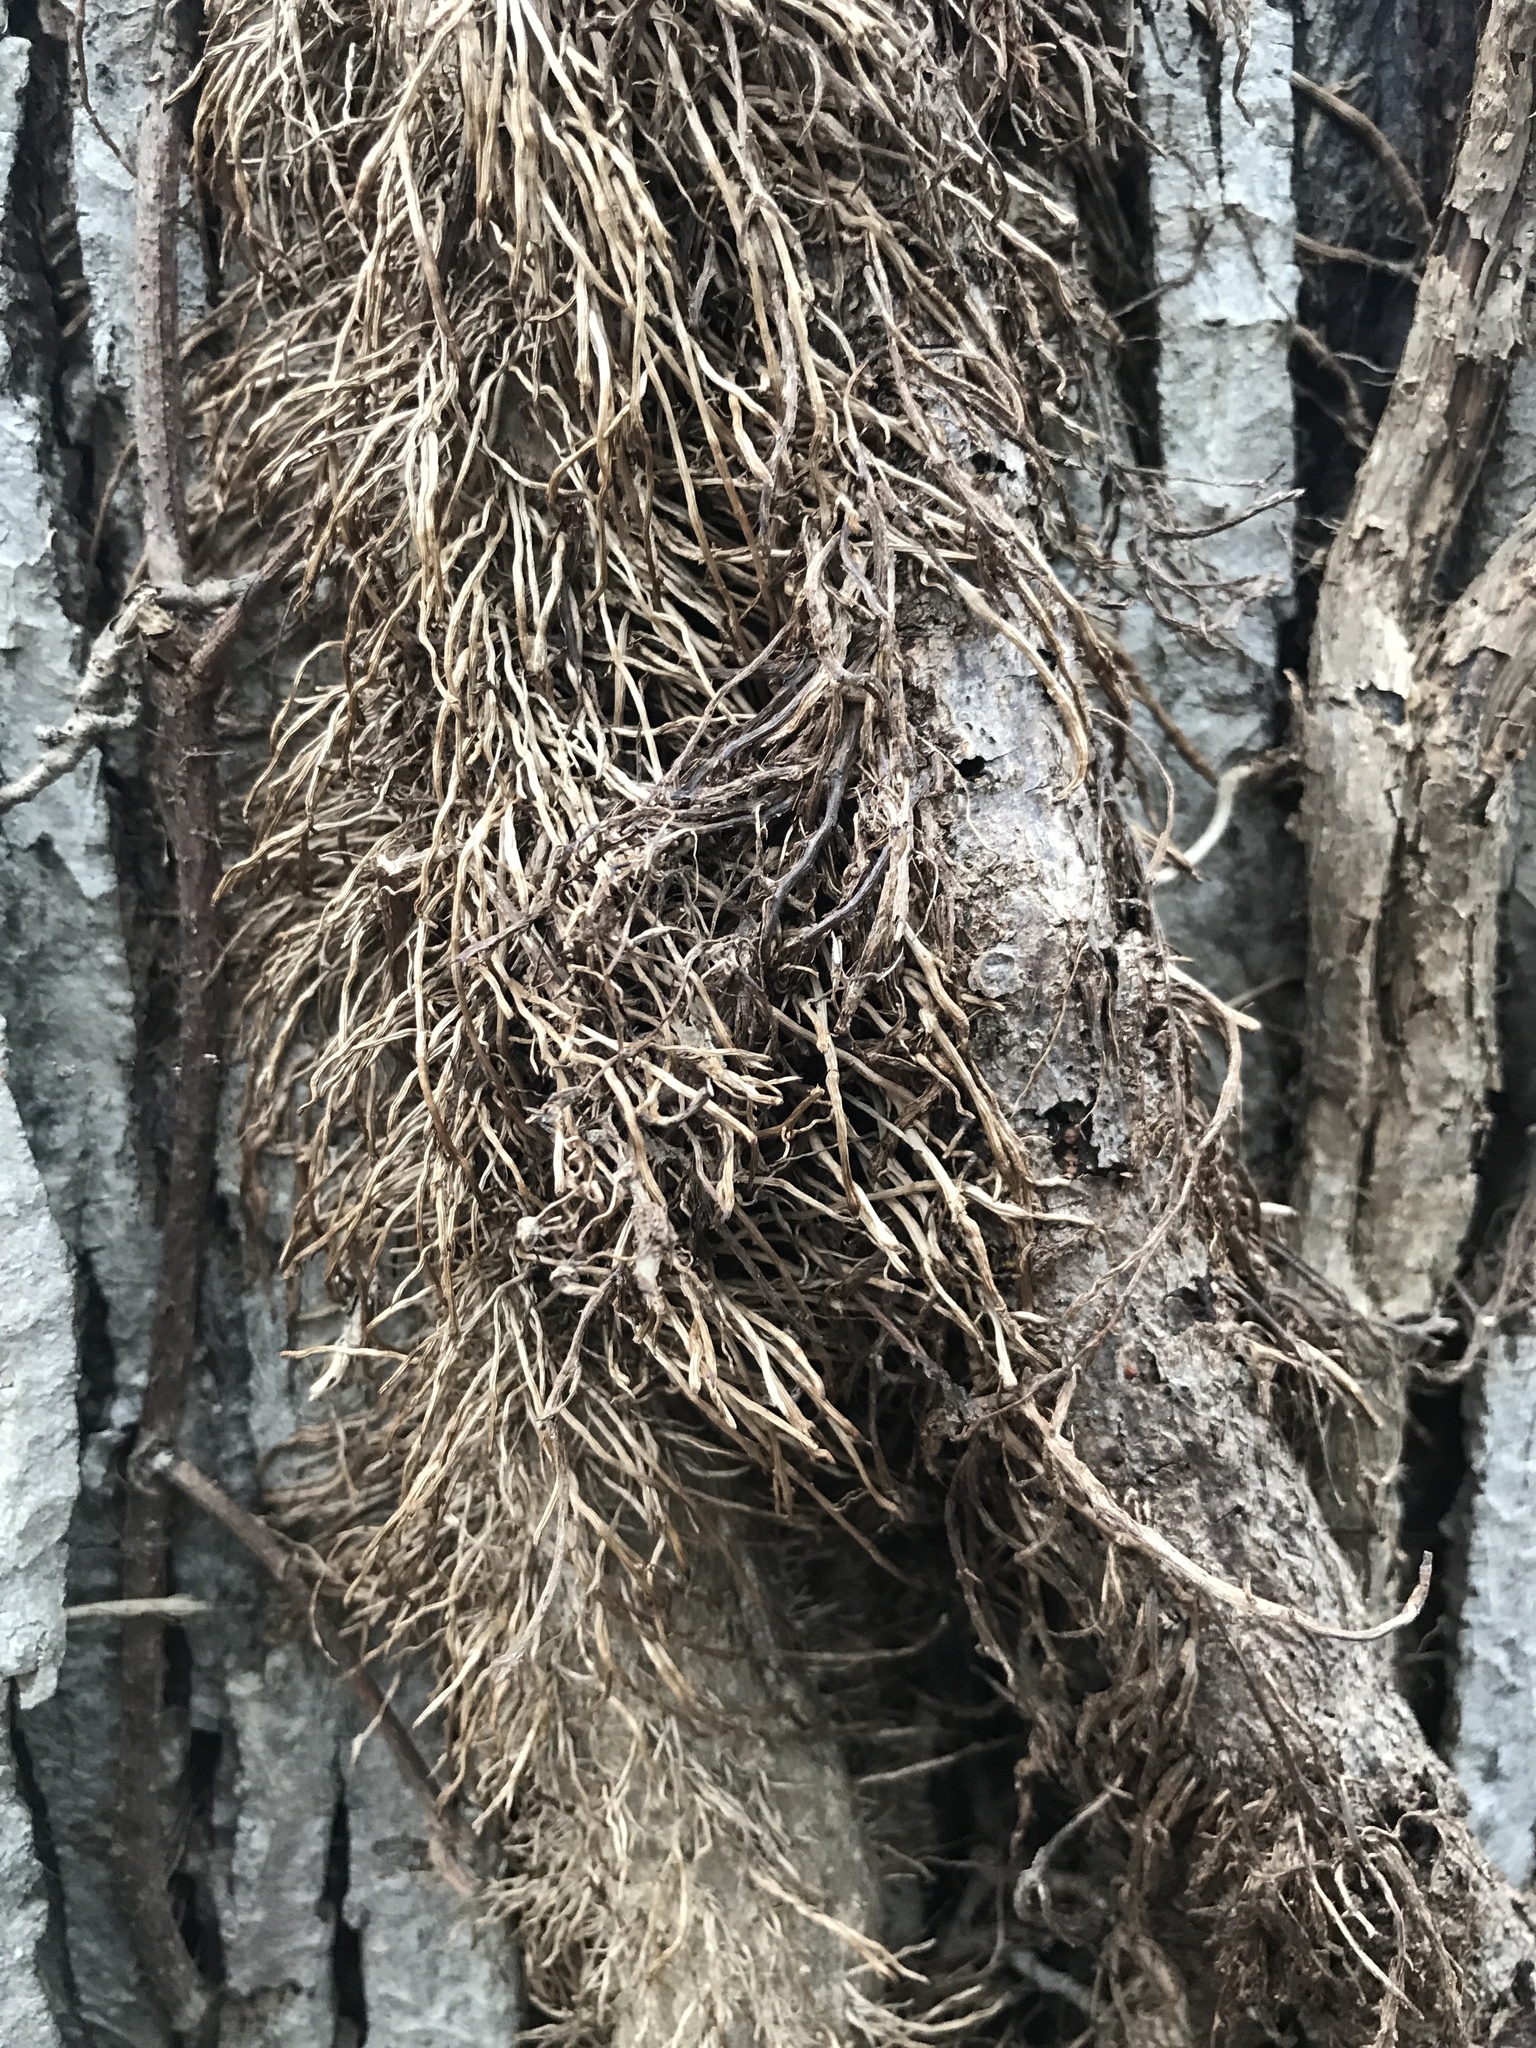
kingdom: Plantae
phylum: Tracheophyta
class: Magnoliopsida
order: Sapindales
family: Anacardiaceae
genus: Toxicodendron
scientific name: Toxicodendron radicans
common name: Poison ivy
